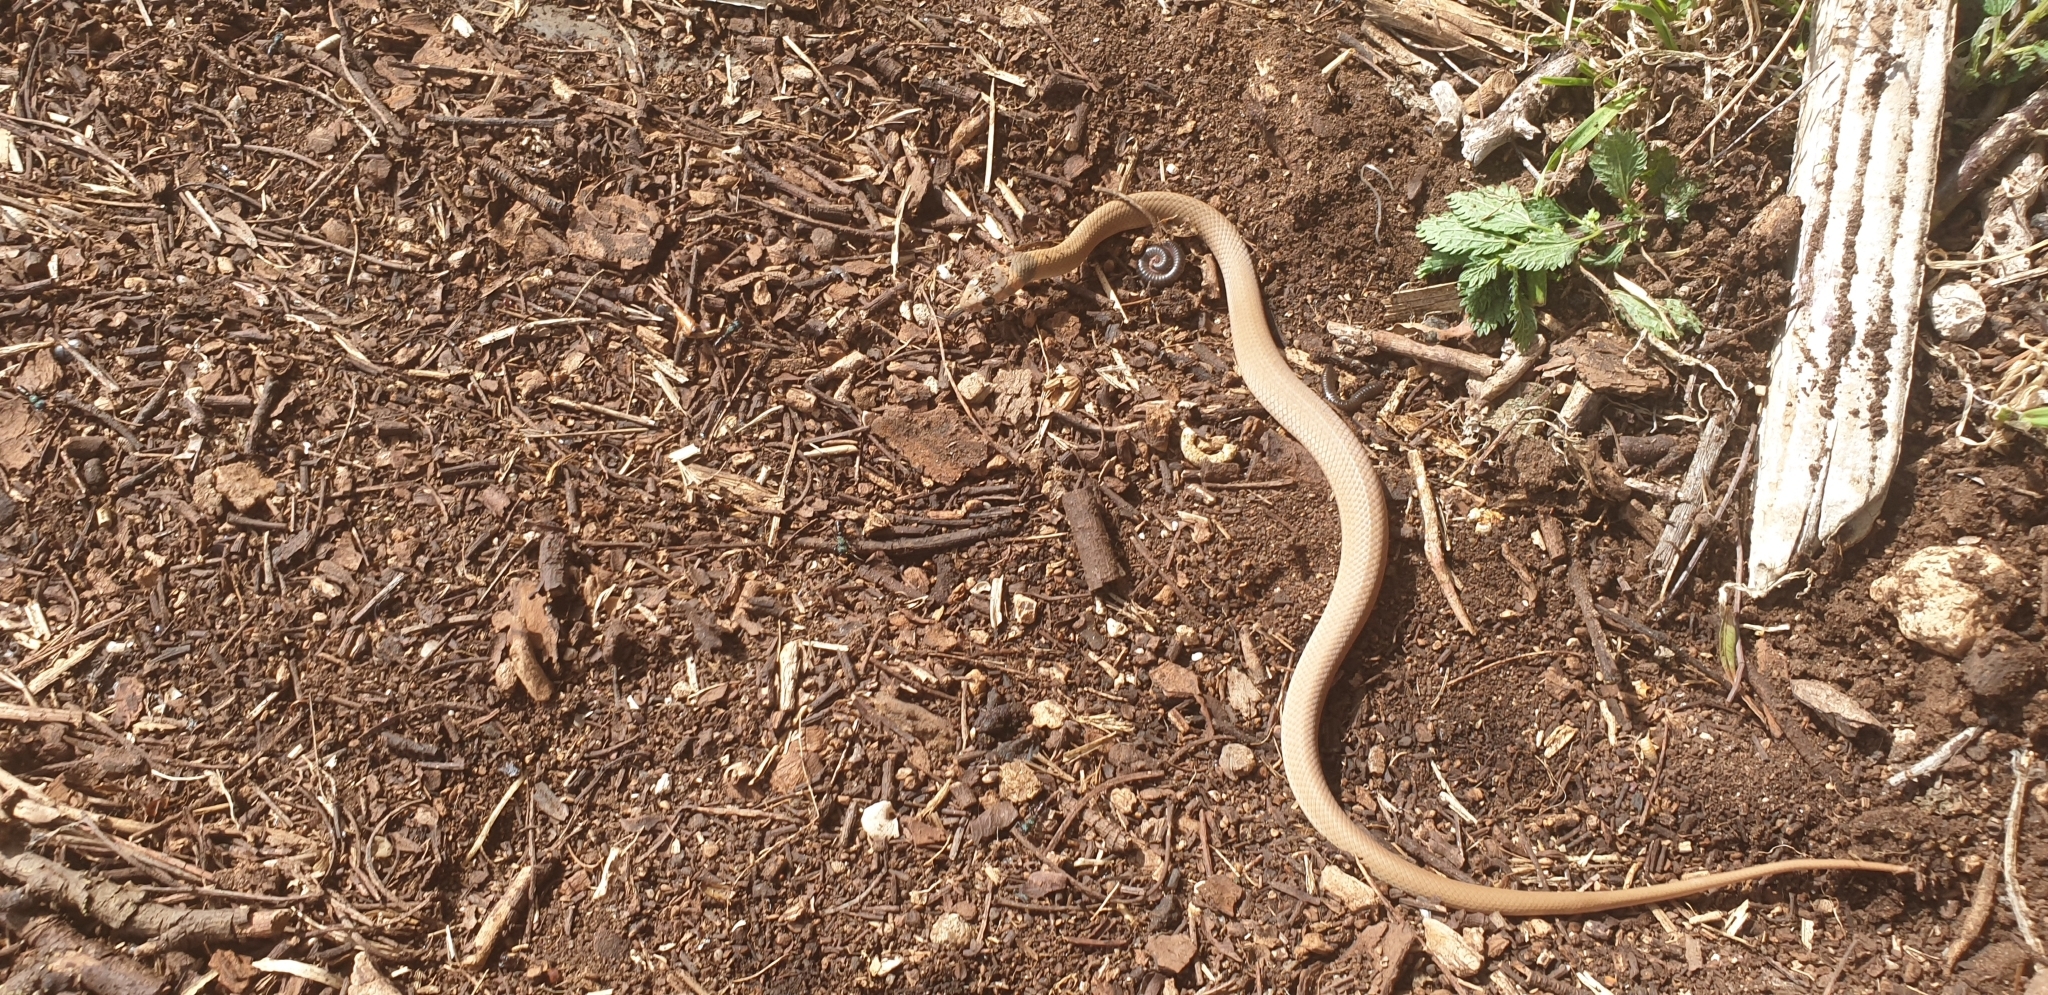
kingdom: Animalia
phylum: Chordata
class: Squamata
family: Elapidae
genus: Pseudonaja
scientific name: Pseudonaja textilis
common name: Eastern brown snake
